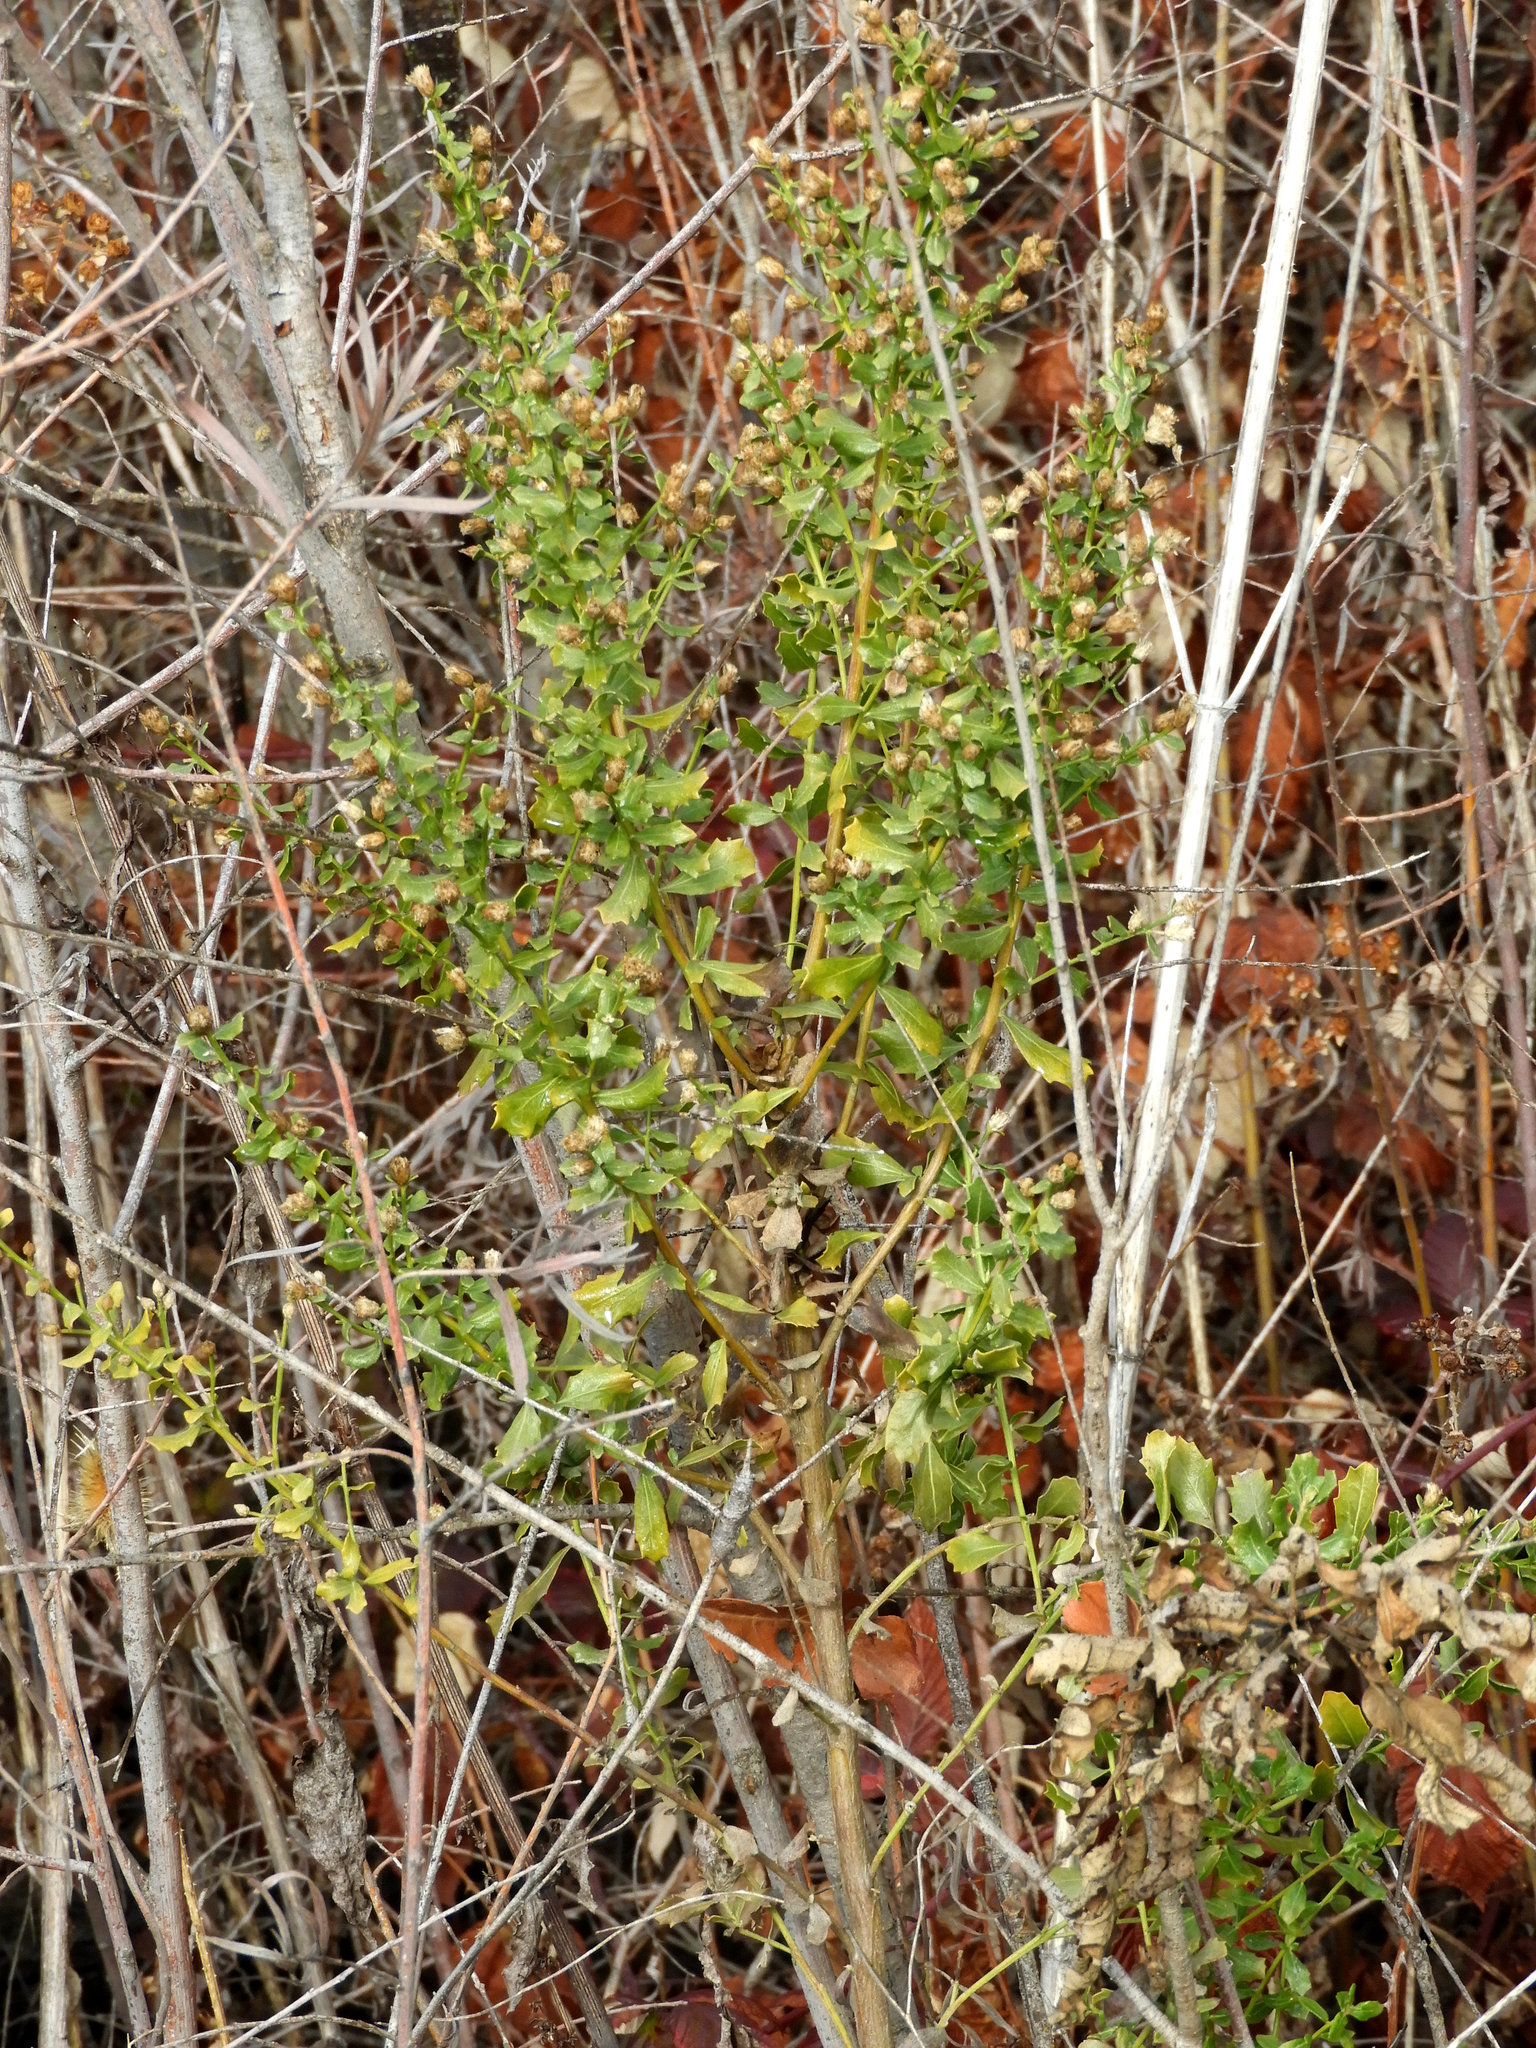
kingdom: Plantae
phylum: Tracheophyta
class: Magnoliopsida
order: Asterales
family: Asteraceae
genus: Baccharis
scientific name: Baccharis pilularis
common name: Coyotebrush
